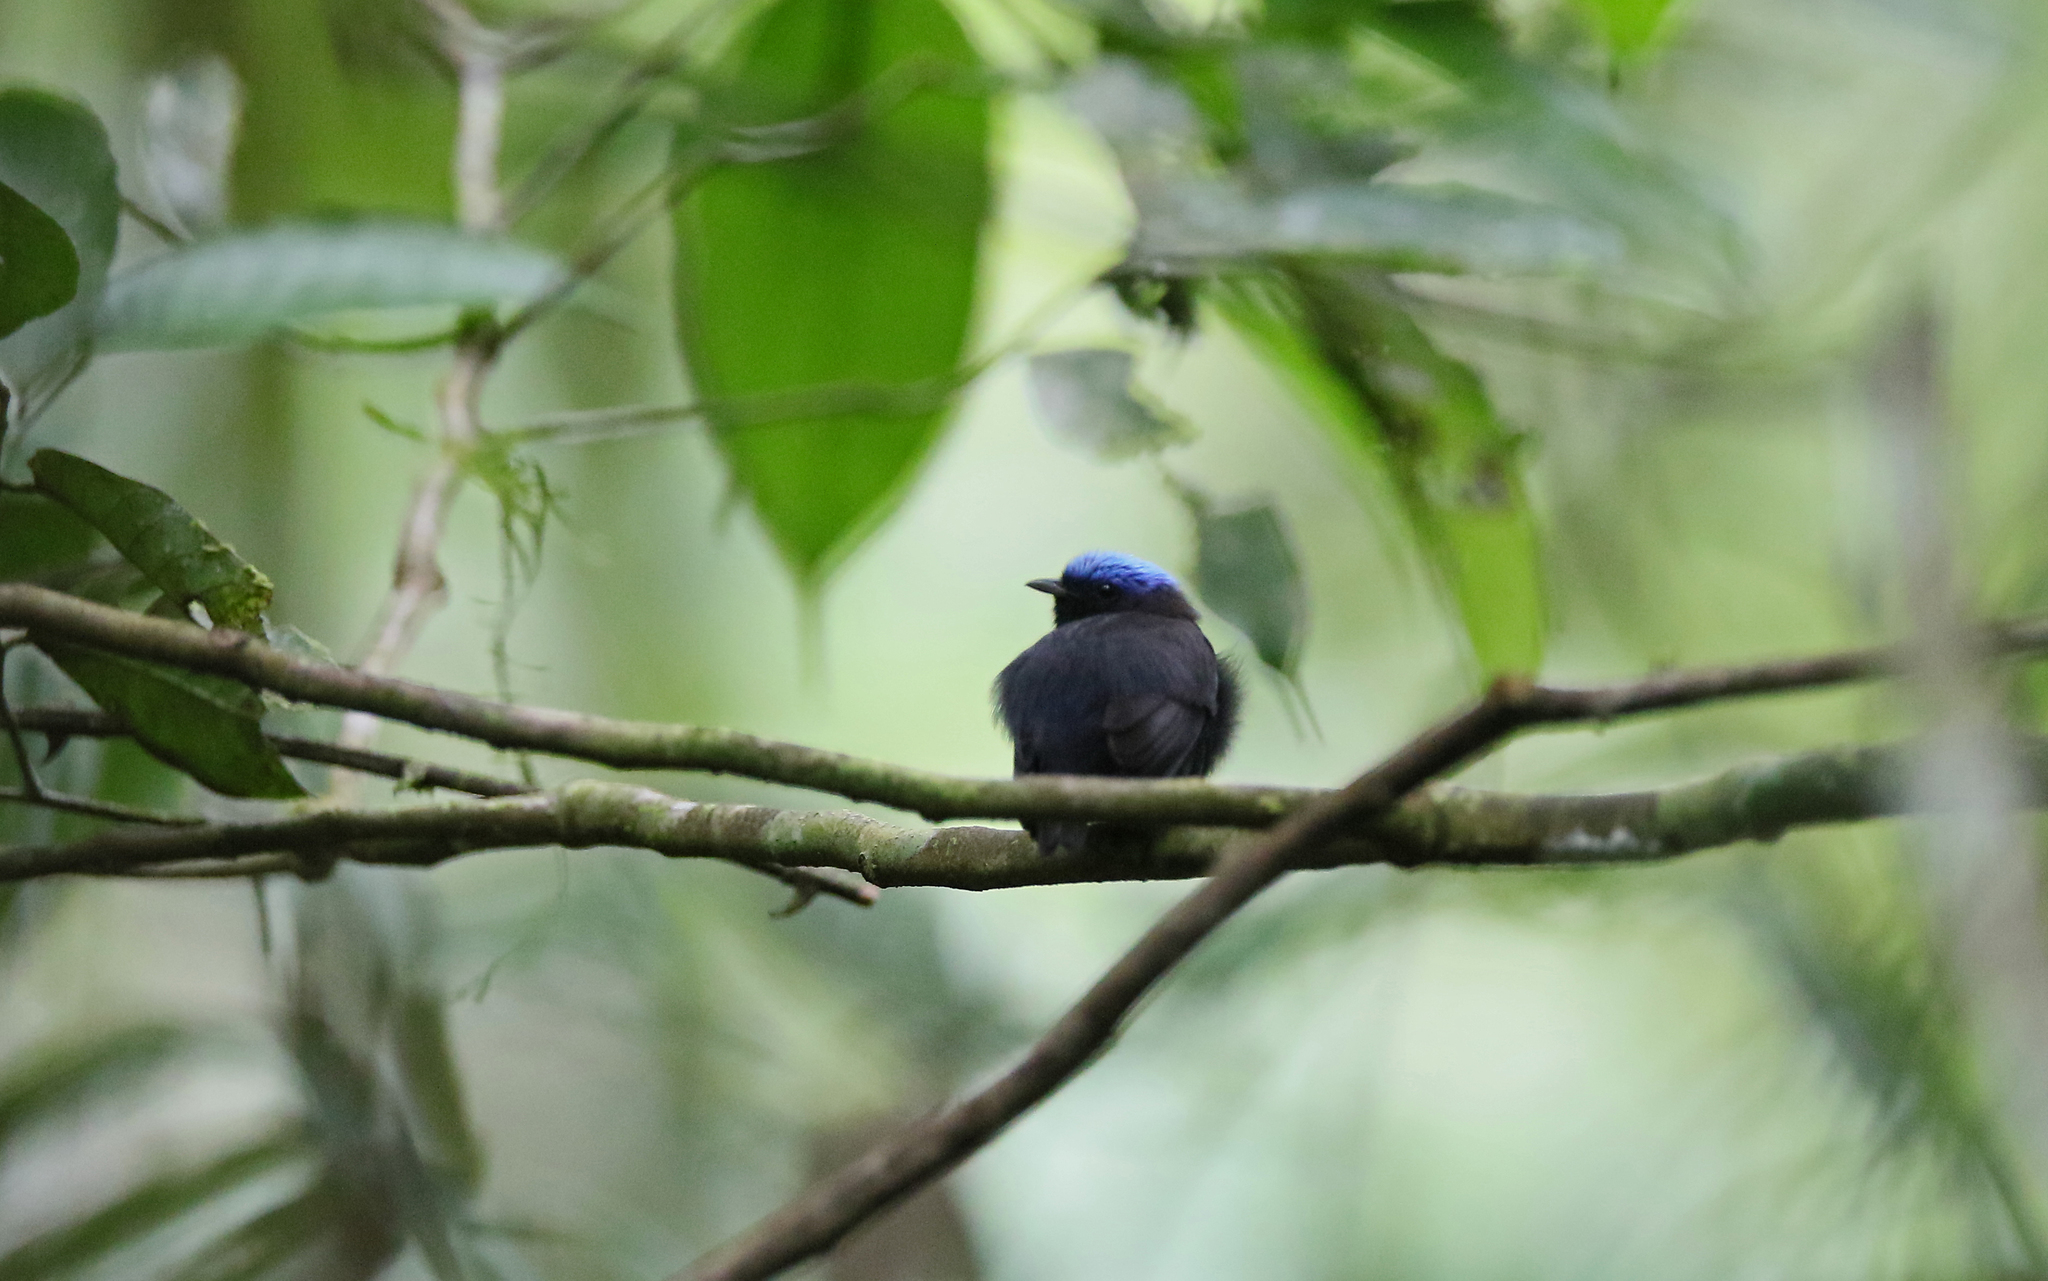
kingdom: Animalia
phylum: Chordata
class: Aves
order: Passeriformes
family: Pipridae
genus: Lepidothrix
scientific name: Lepidothrix coronata
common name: Blue-crowned manakin
